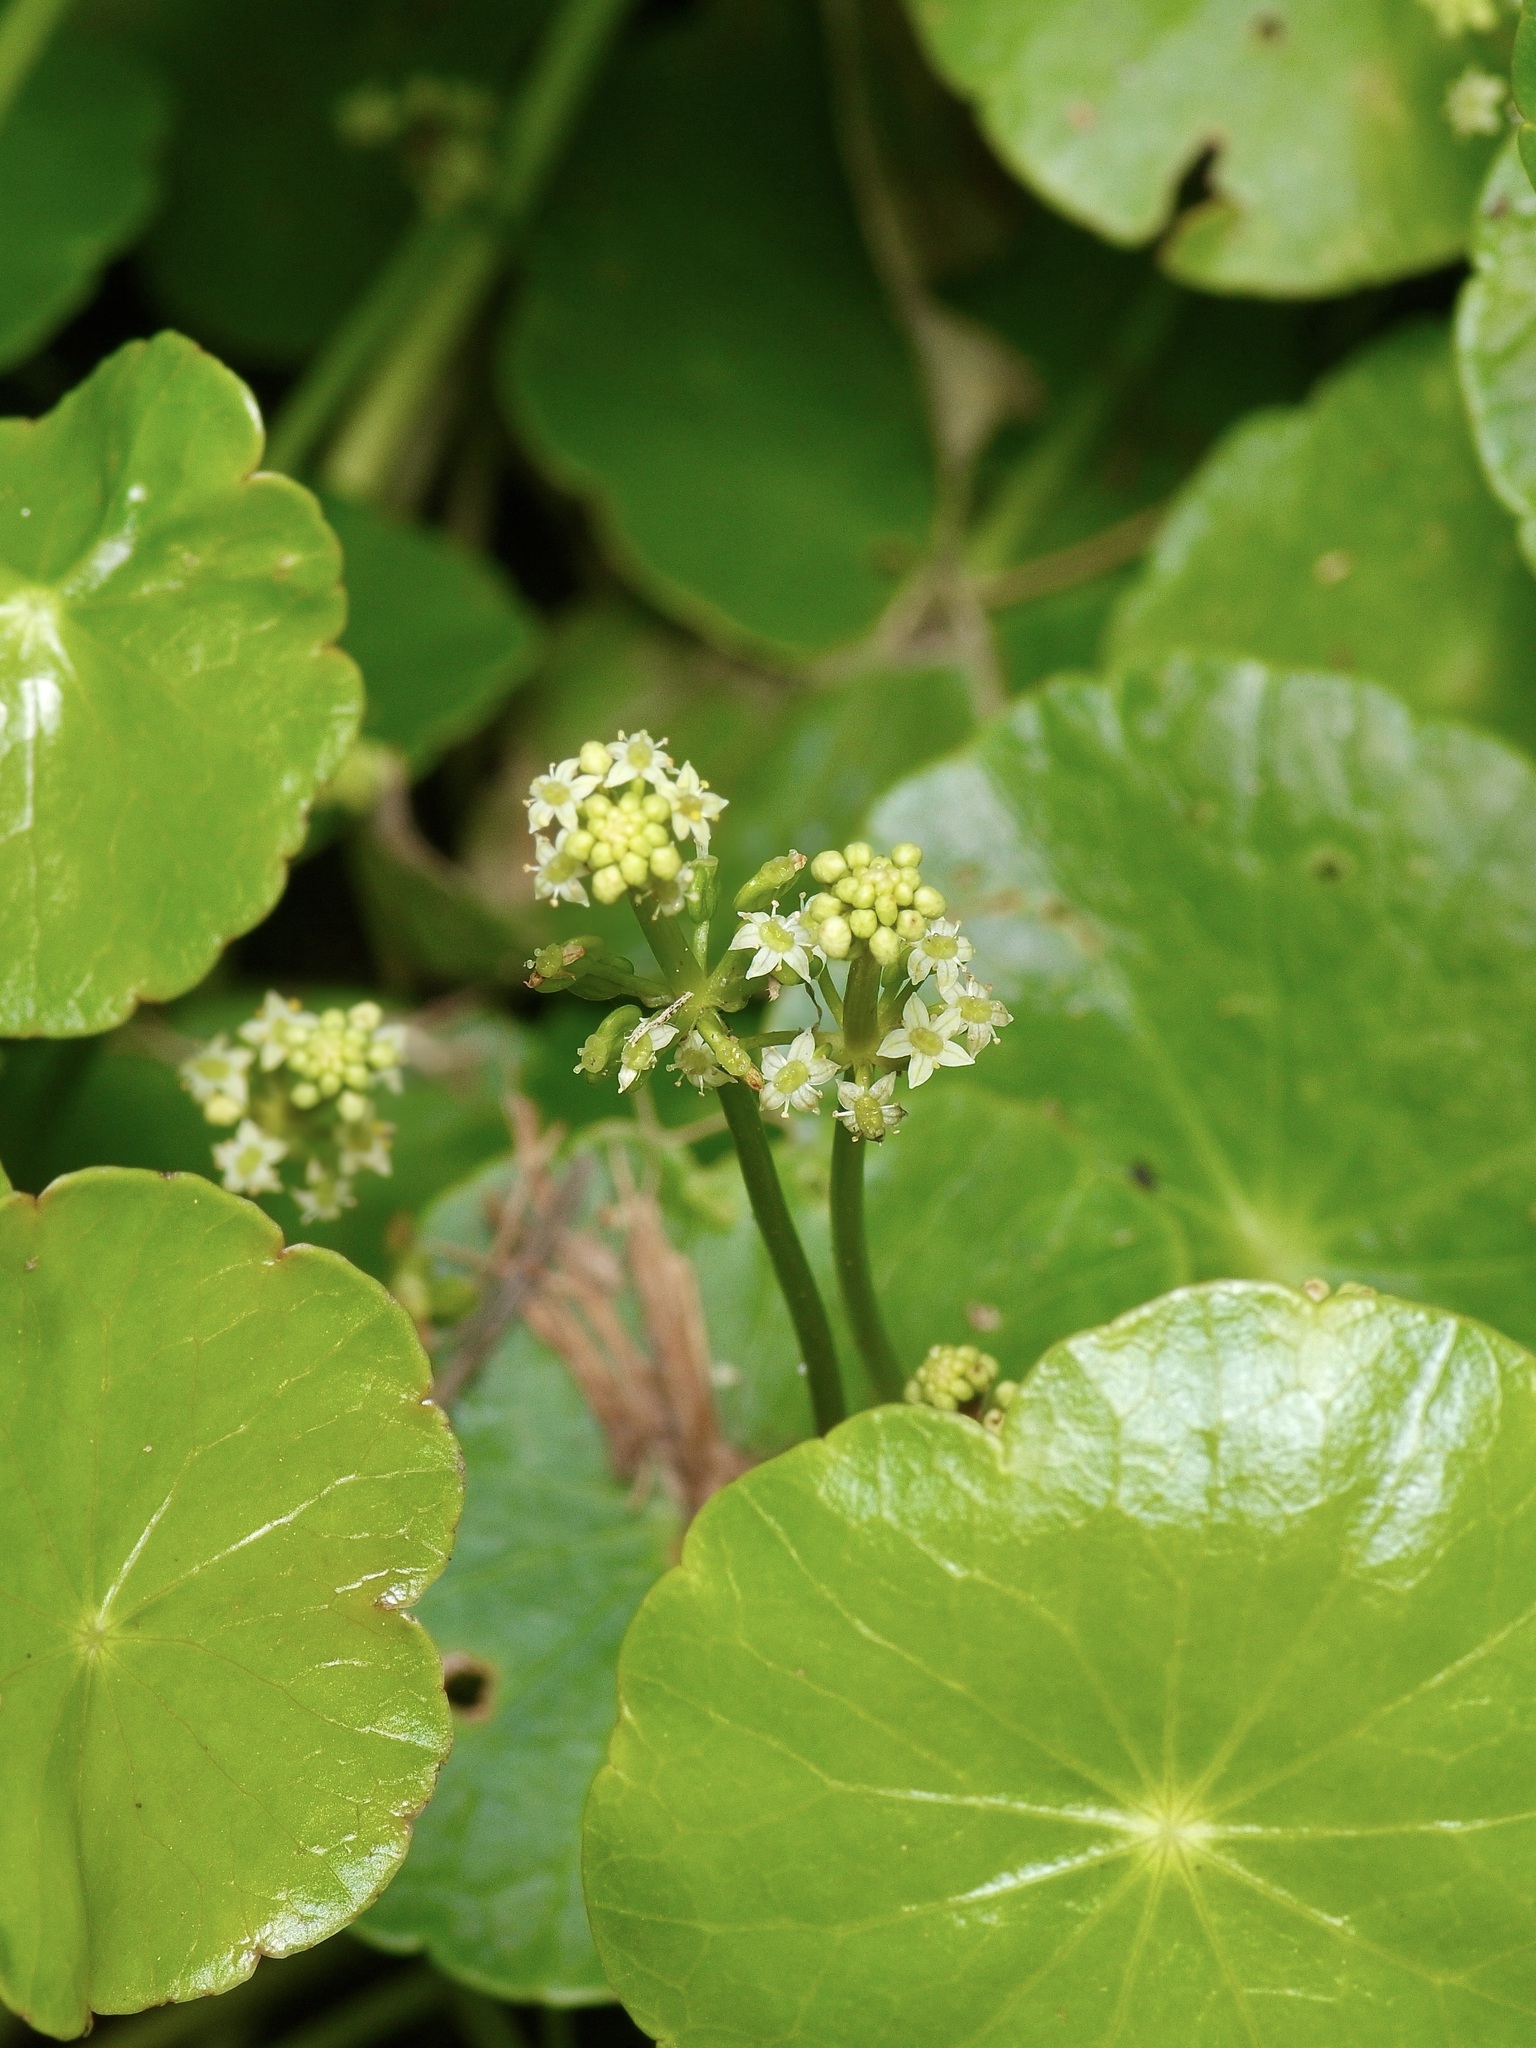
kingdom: Plantae
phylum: Tracheophyta
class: Magnoliopsida
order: Apiales
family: Araliaceae
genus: Hydrocotyle
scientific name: Hydrocotyle prolifera
